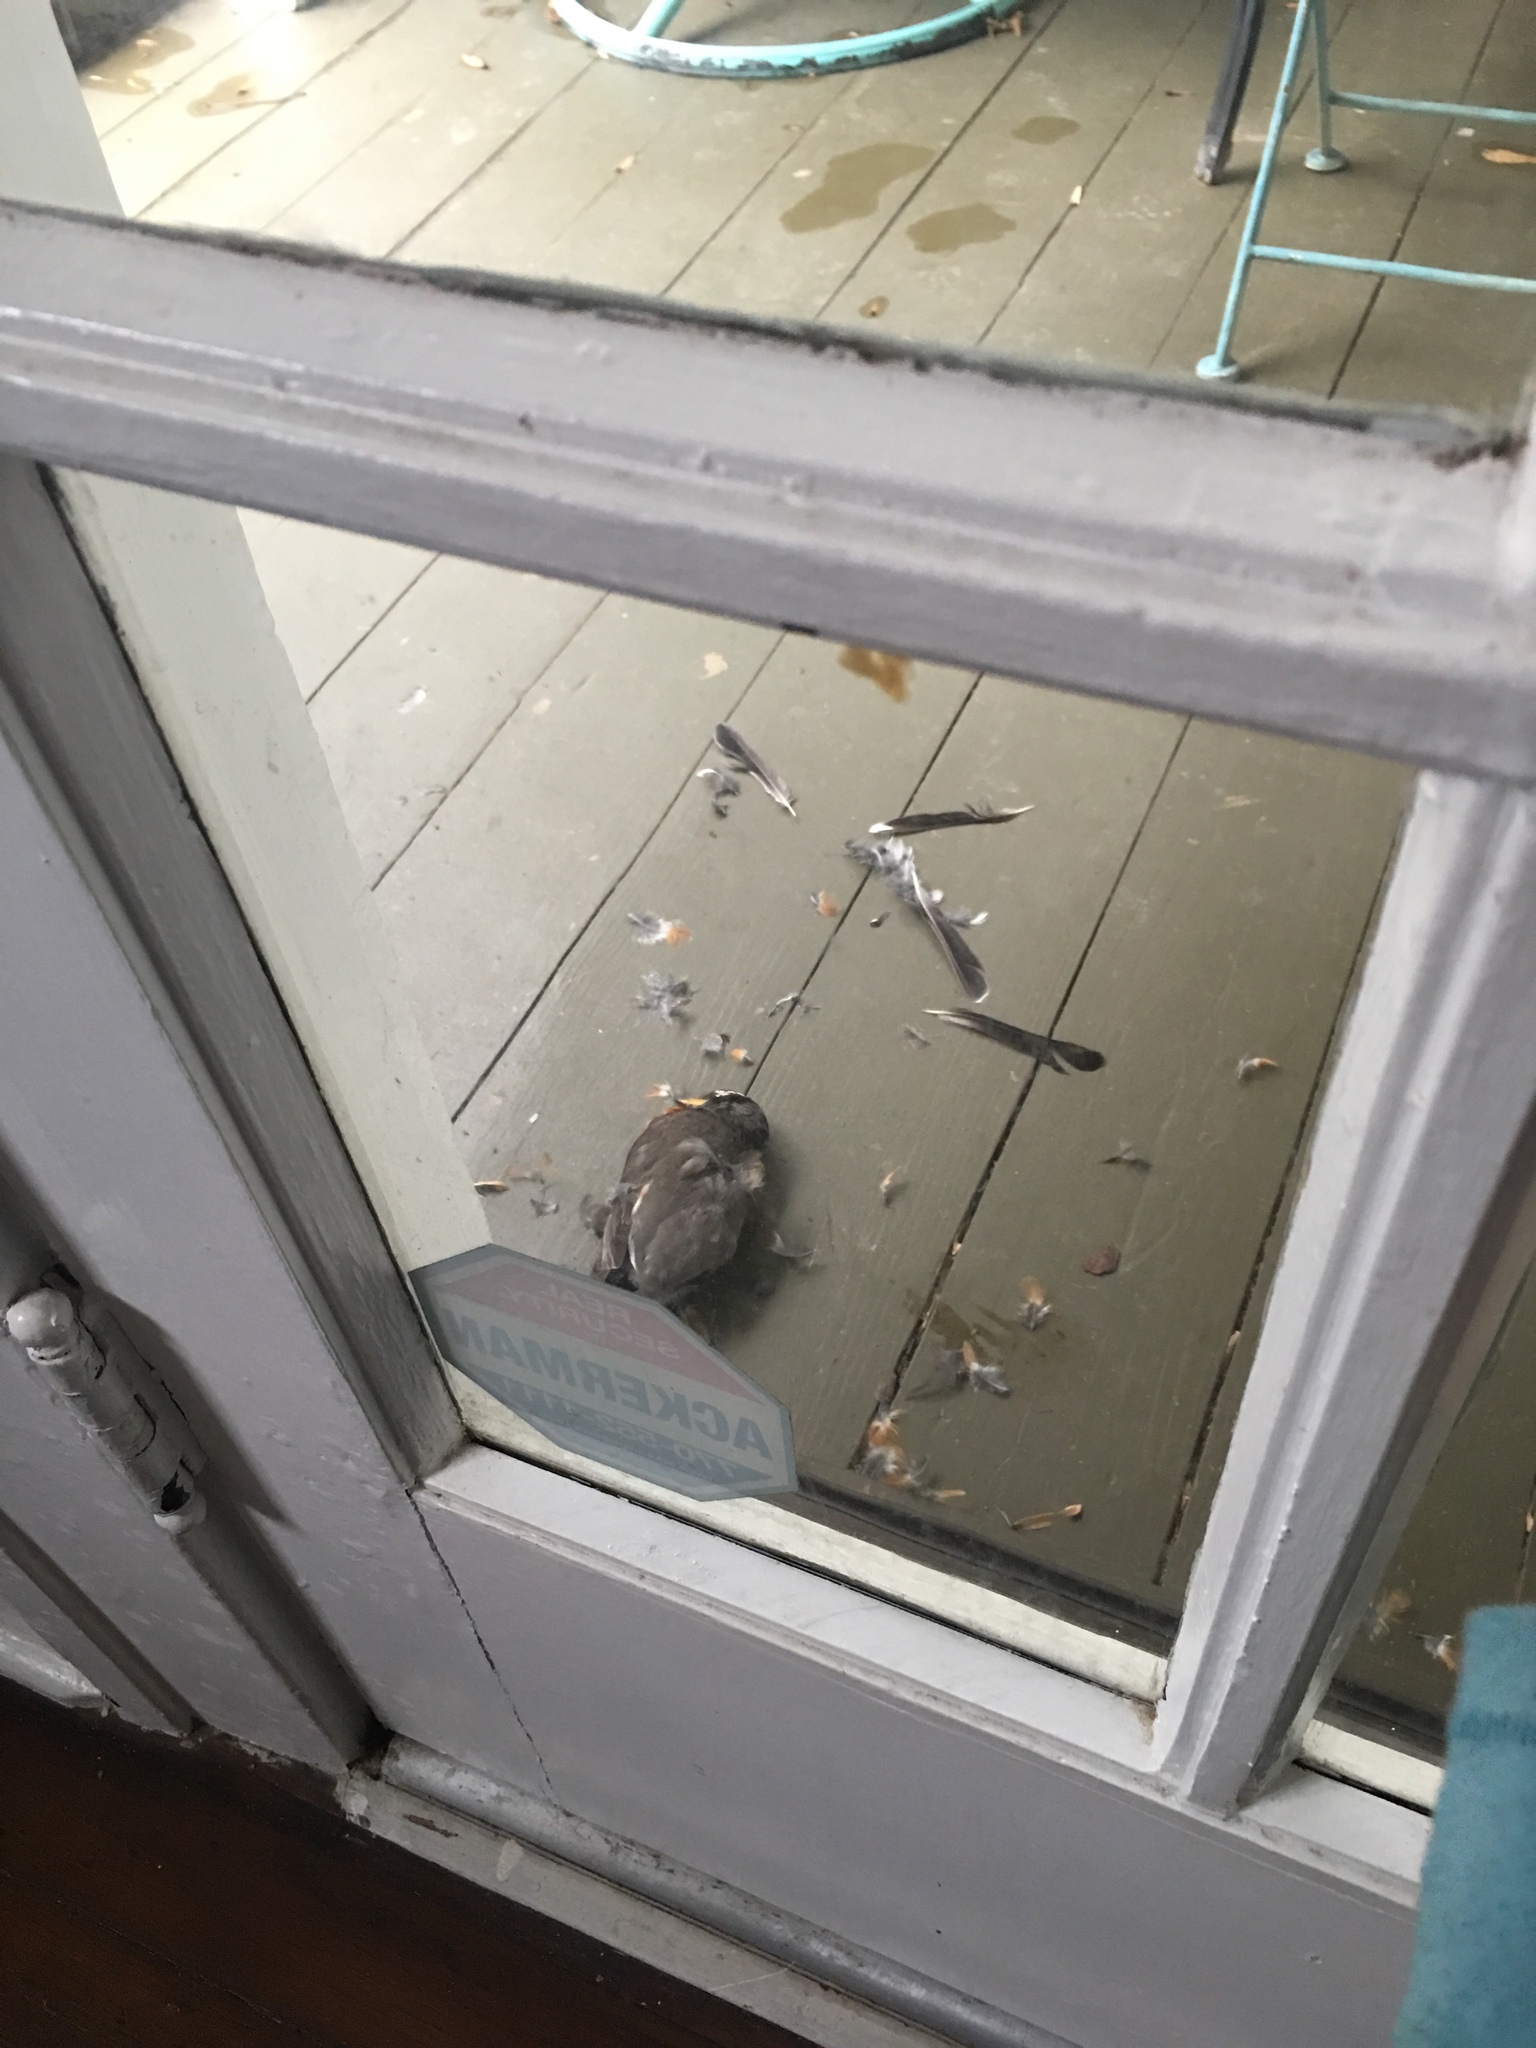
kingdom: Animalia
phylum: Chordata
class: Aves
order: Passeriformes
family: Turdidae
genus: Turdus
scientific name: Turdus migratorius
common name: American robin
